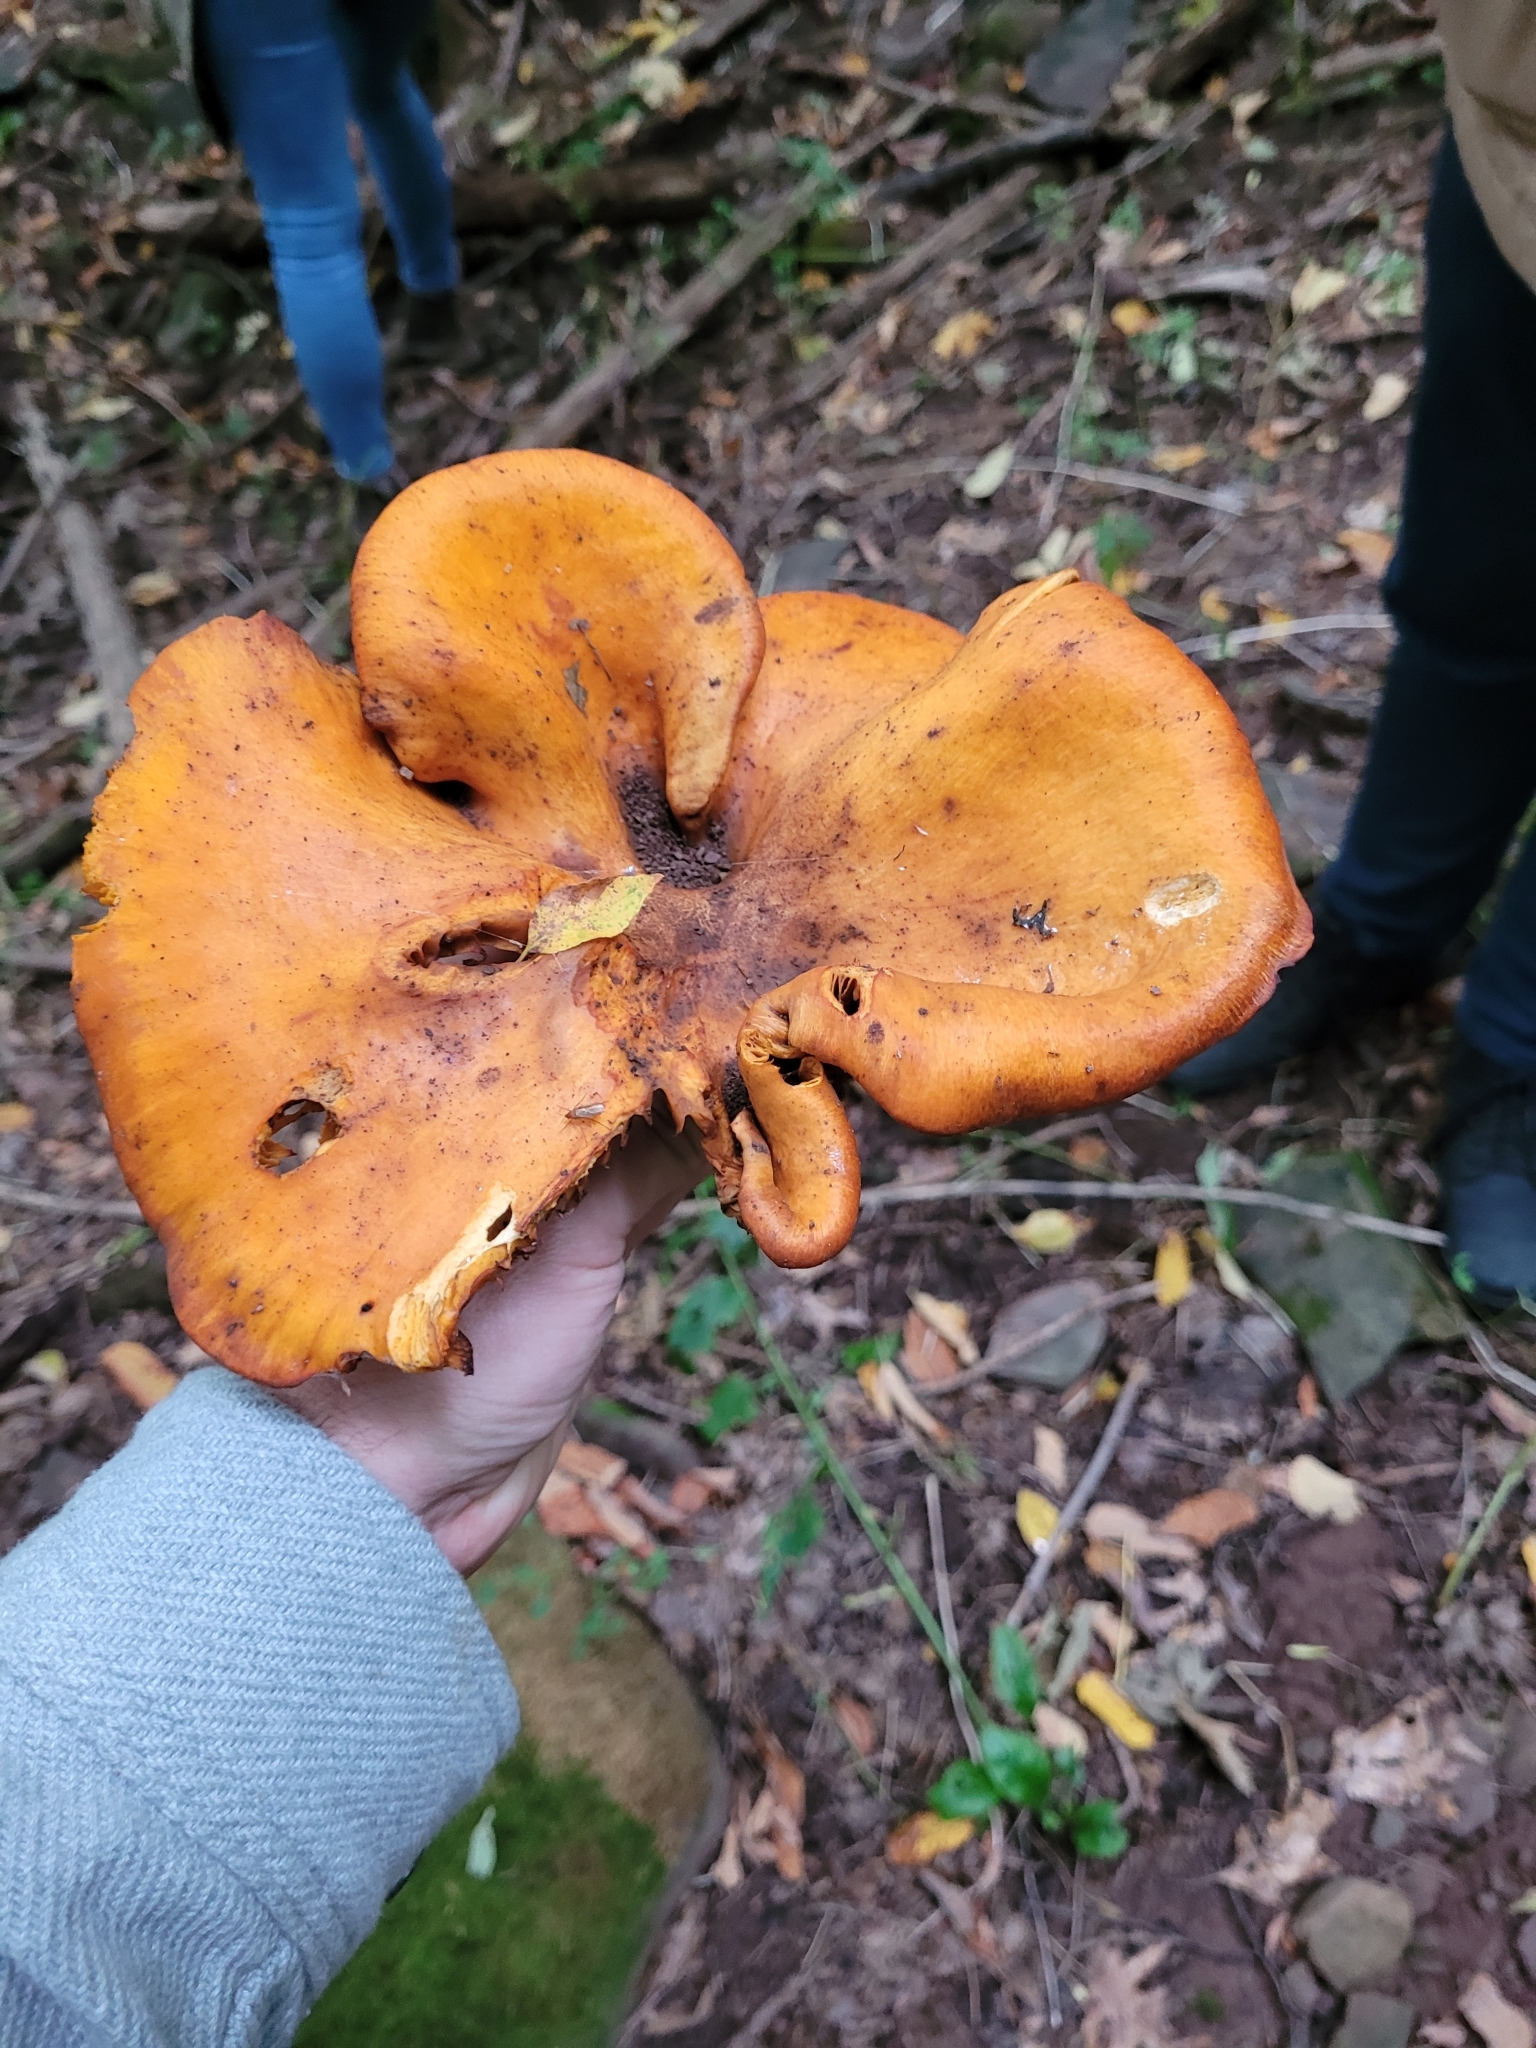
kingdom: Fungi
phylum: Basidiomycota
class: Agaricomycetes
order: Agaricales
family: Omphalotaceae
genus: Omphalotus
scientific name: Omphalotus illudens
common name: Jack o lantern
